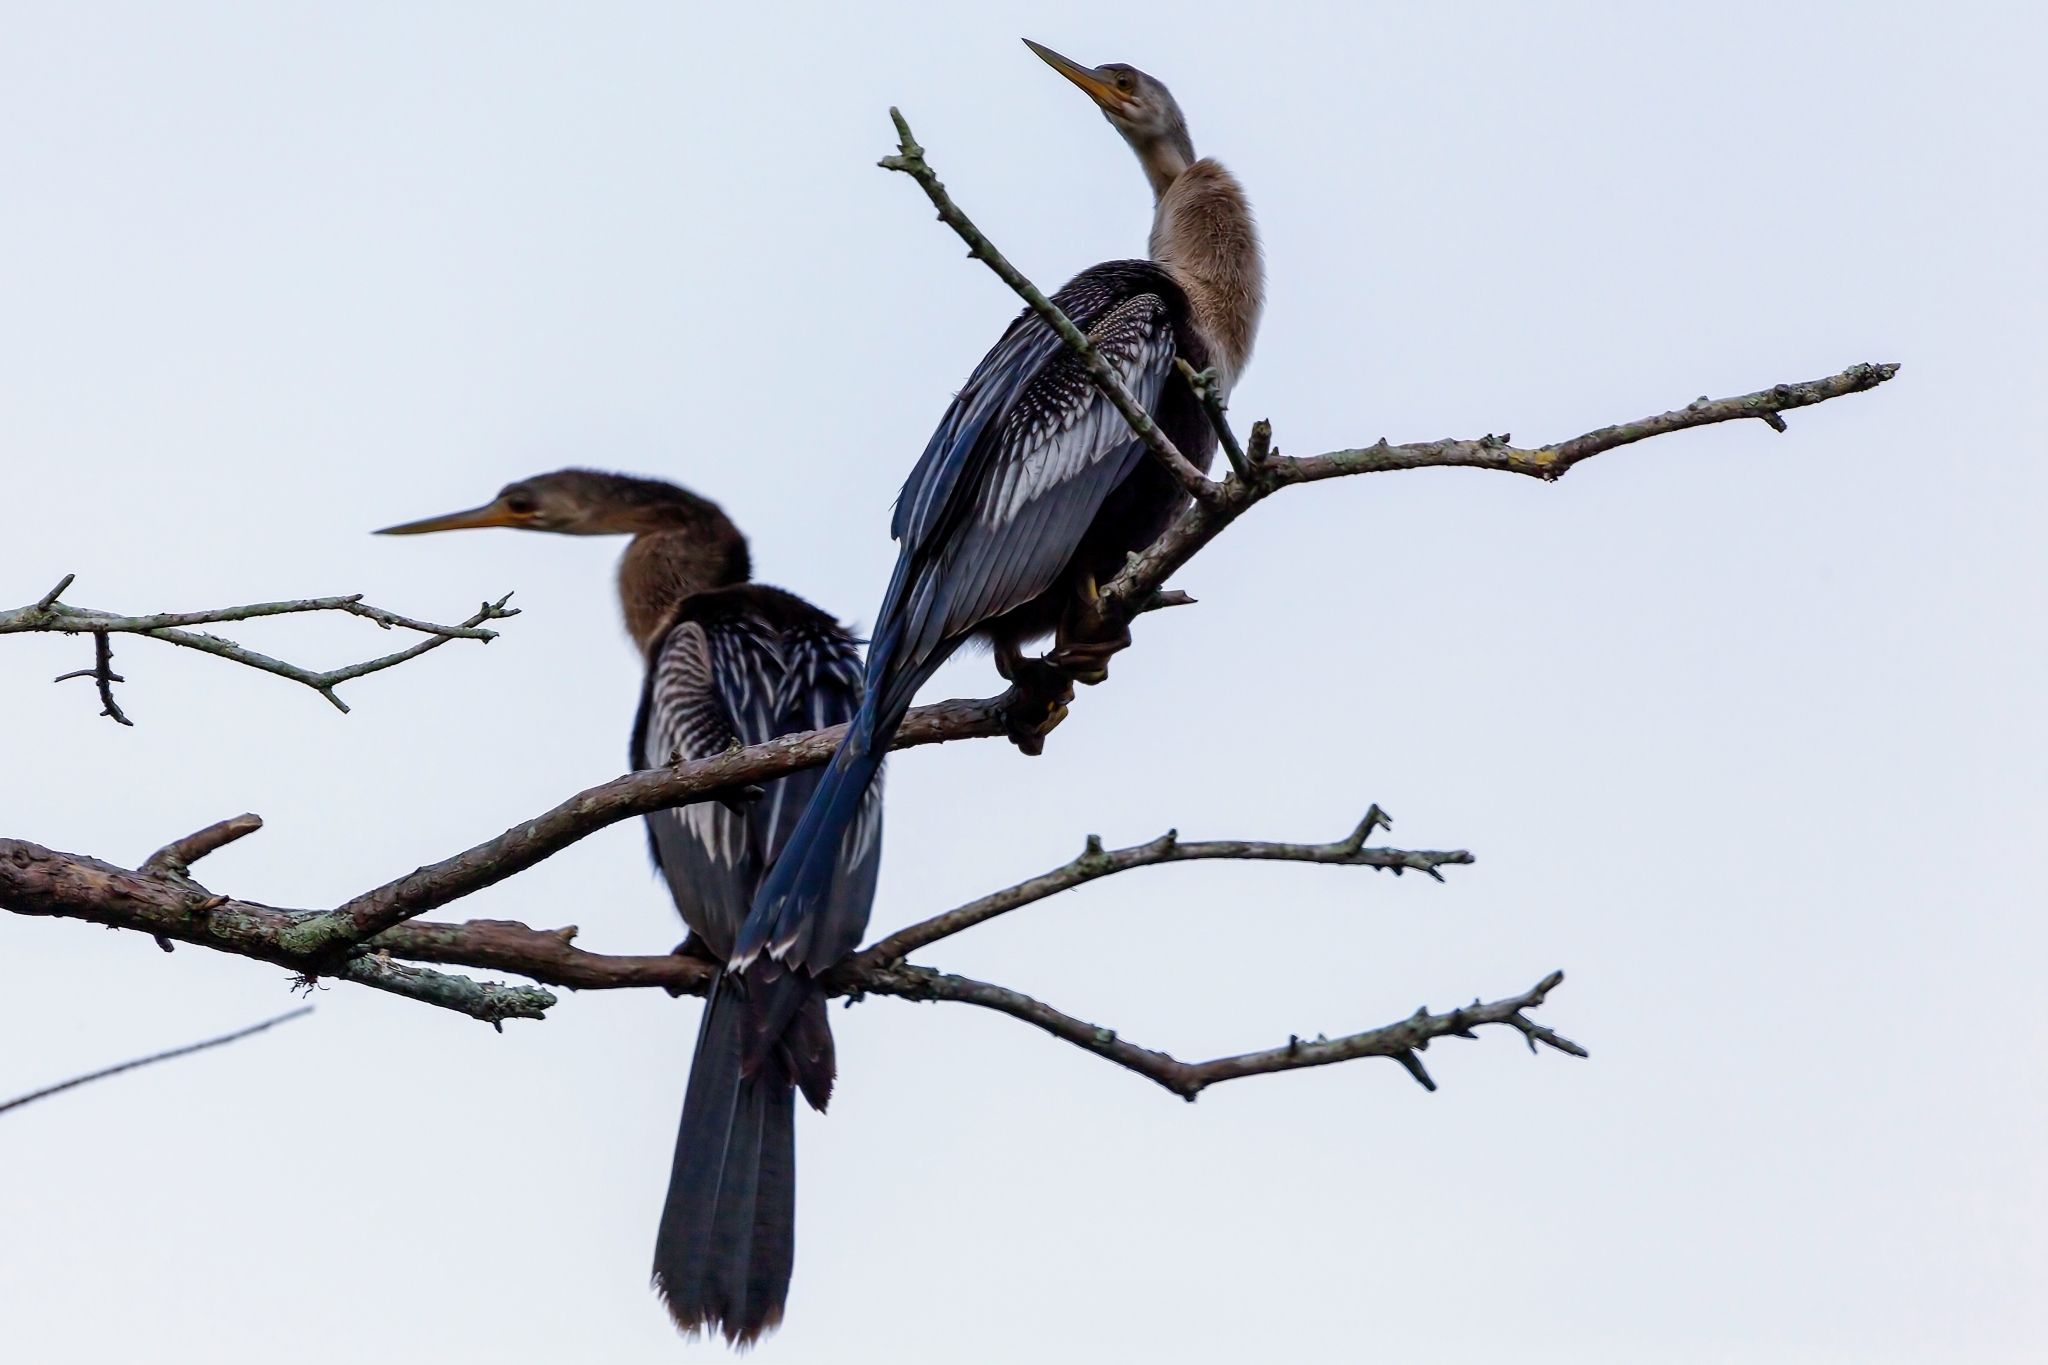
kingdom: Animalia
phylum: Chordata
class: Aves
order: Suliformes
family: Anhingidae
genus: Anhinga
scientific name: Anhinga anhinga
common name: Anhinga
